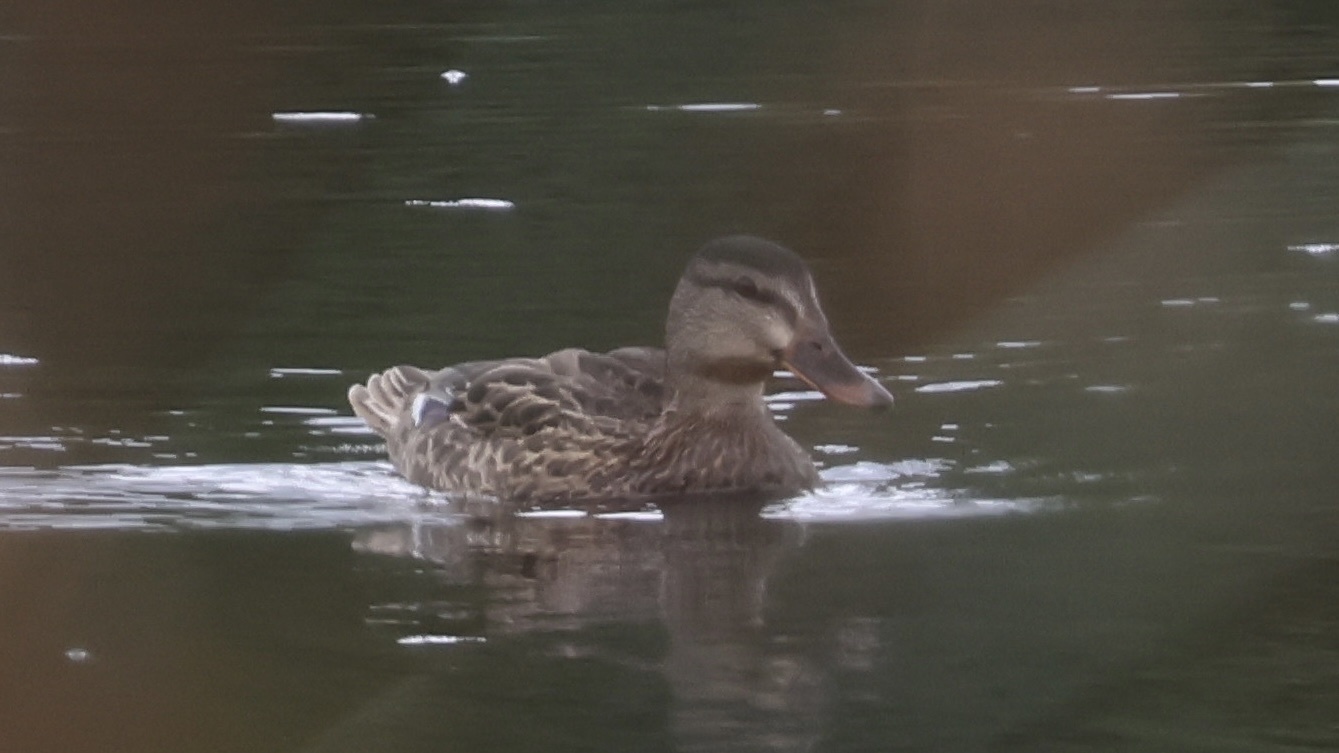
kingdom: Animalia
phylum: Chordata
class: Aves
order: Anseriformes
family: Anatidae
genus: Anas
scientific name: Anas platyrhynchos
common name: Mallard
